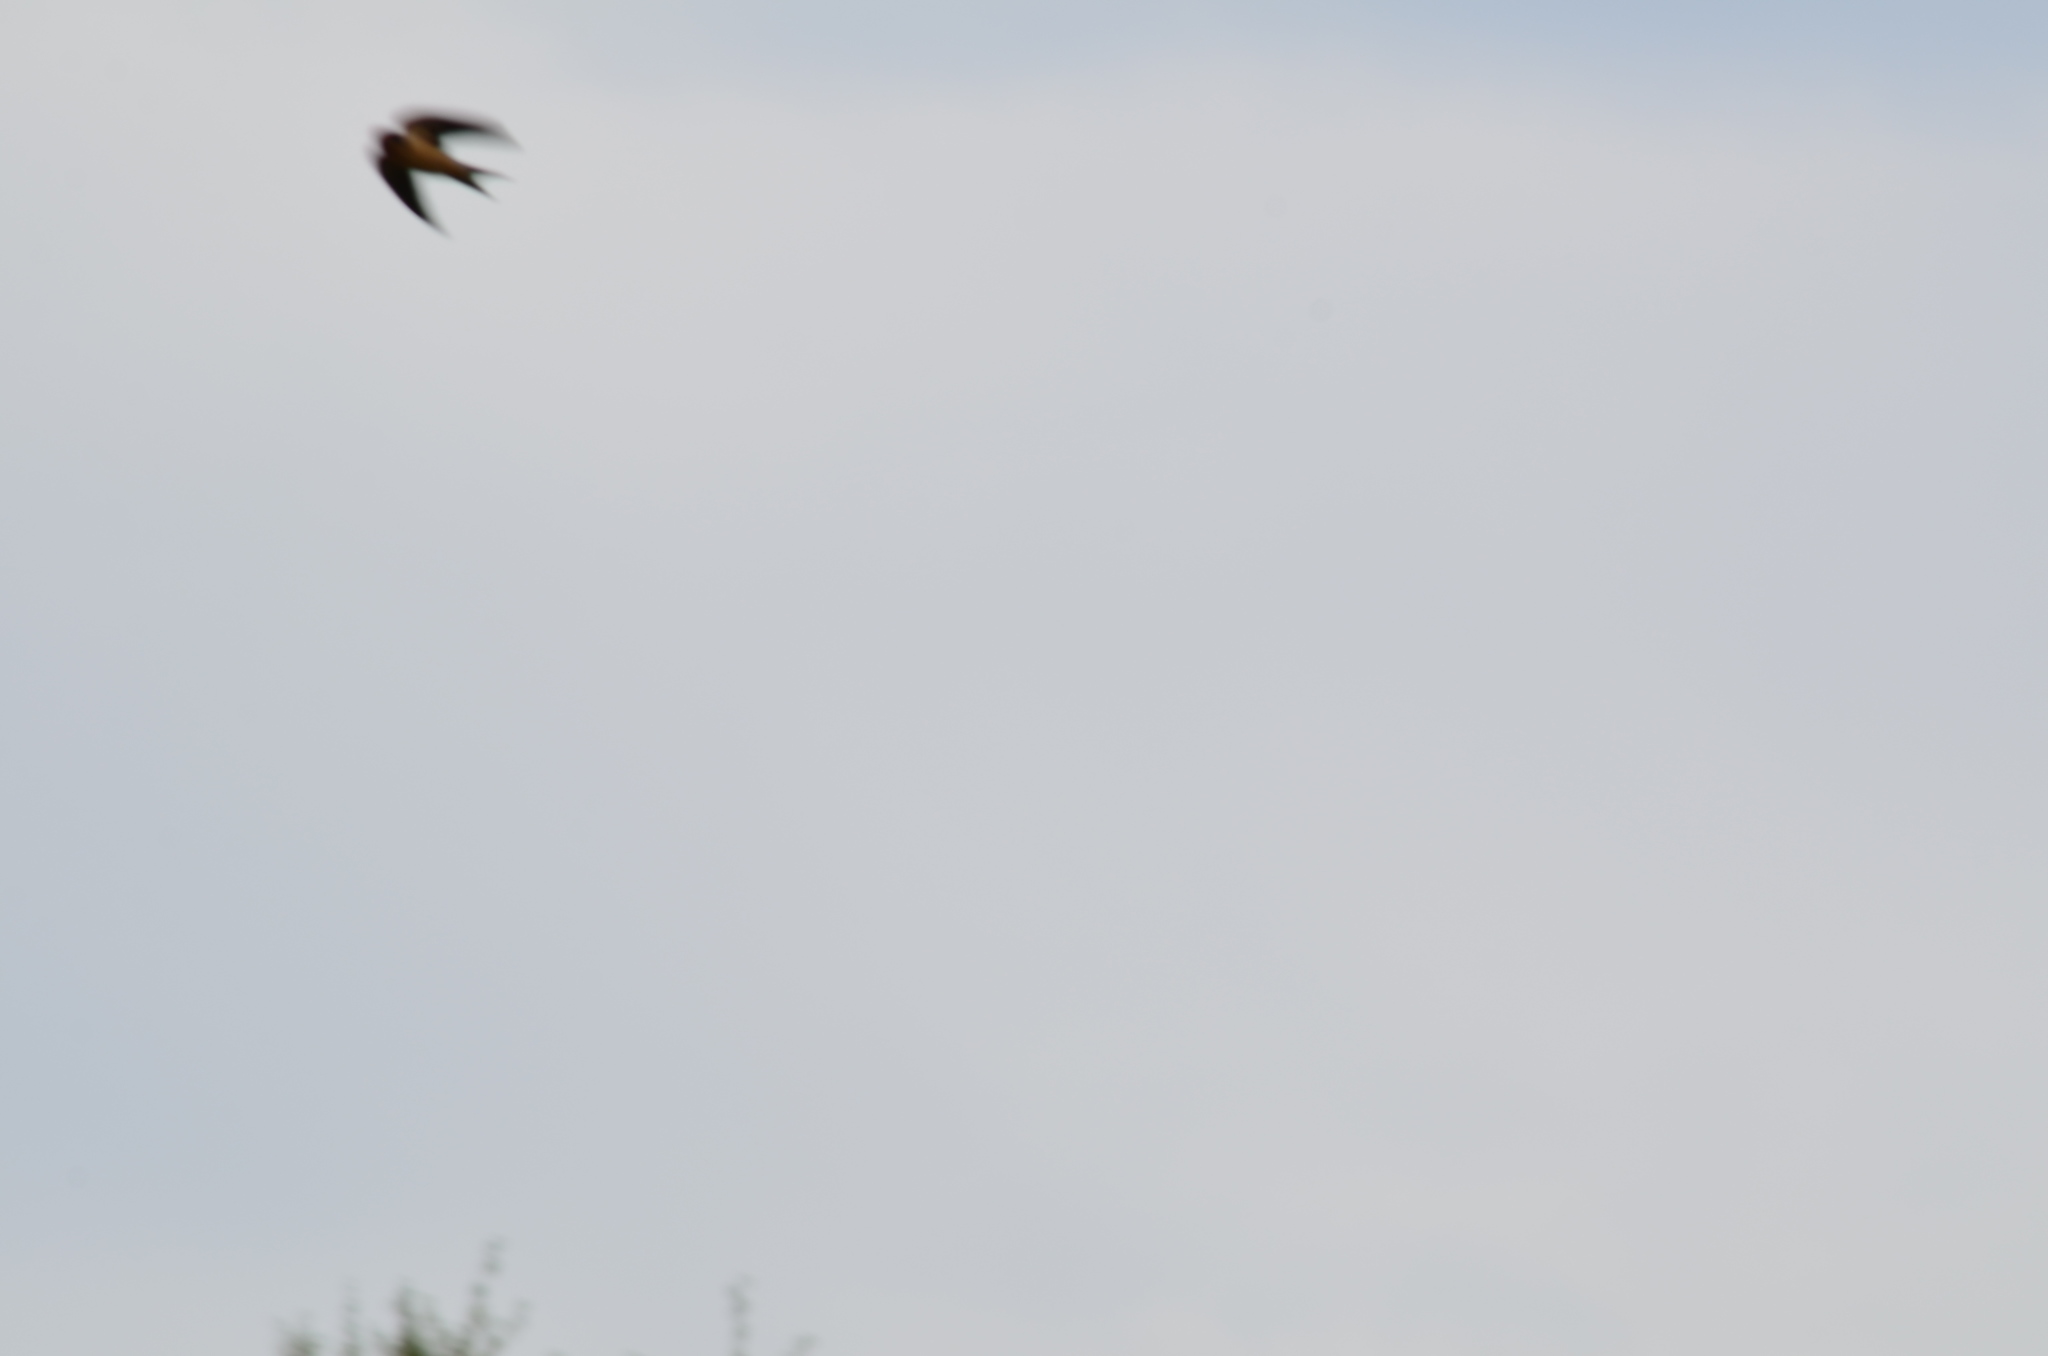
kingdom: Animalia
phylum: Chordata
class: Aves
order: Passeriformes
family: Hirundinidae
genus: Hirundo
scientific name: Hirundo rustica
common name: Barn swallow
